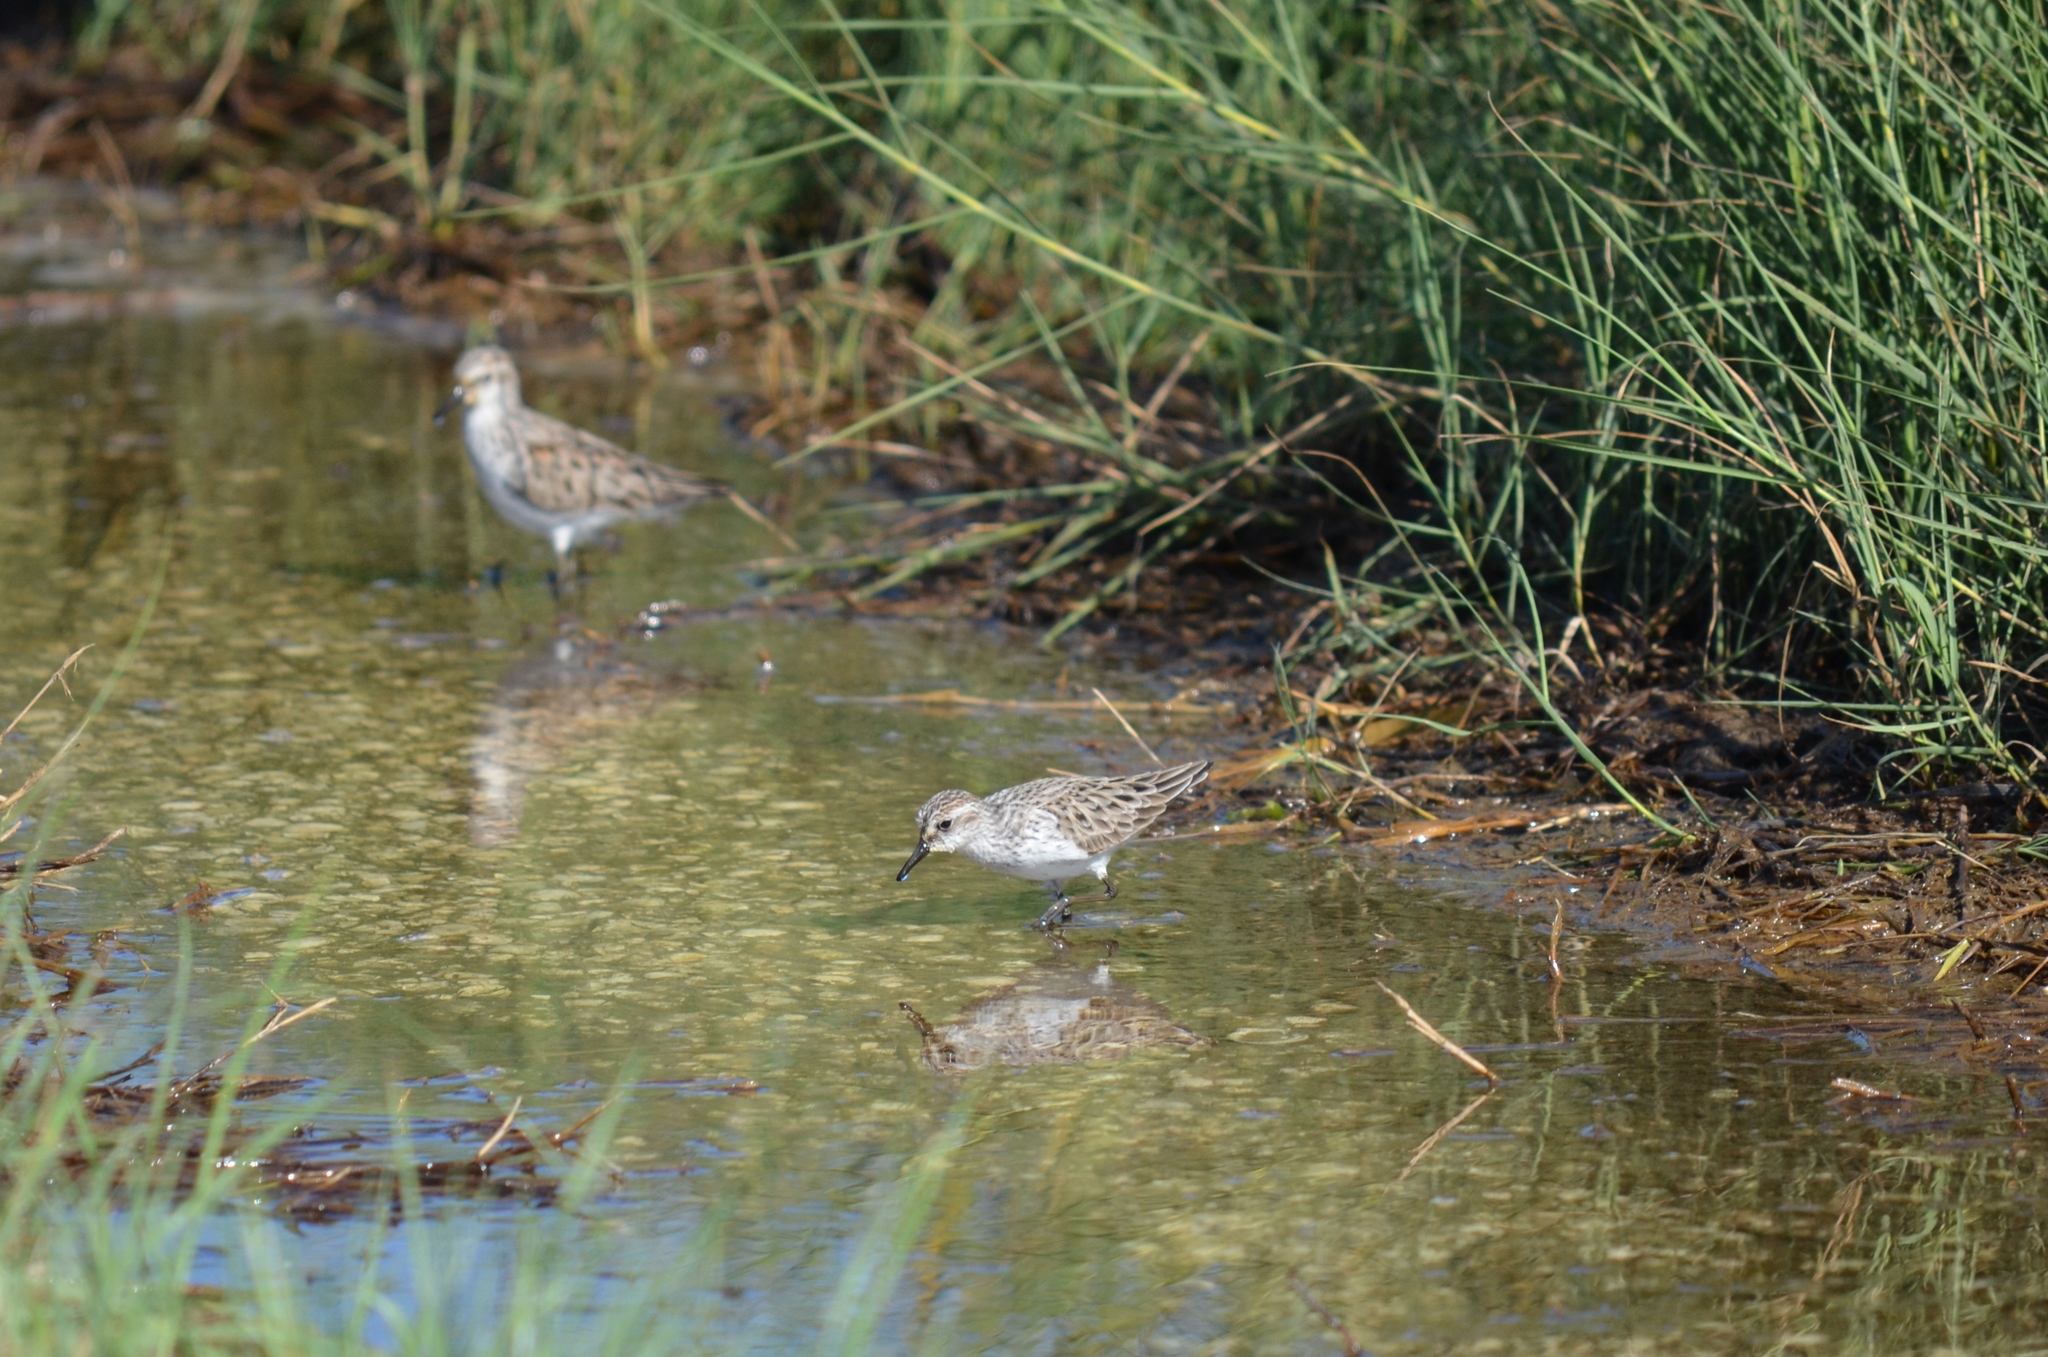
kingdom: Animalia
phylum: Chordata
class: Aves
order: Charadriiformes
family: Scolopacidae
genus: Calidris
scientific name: Calidris pusilla
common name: Semipalmated sandpiper
